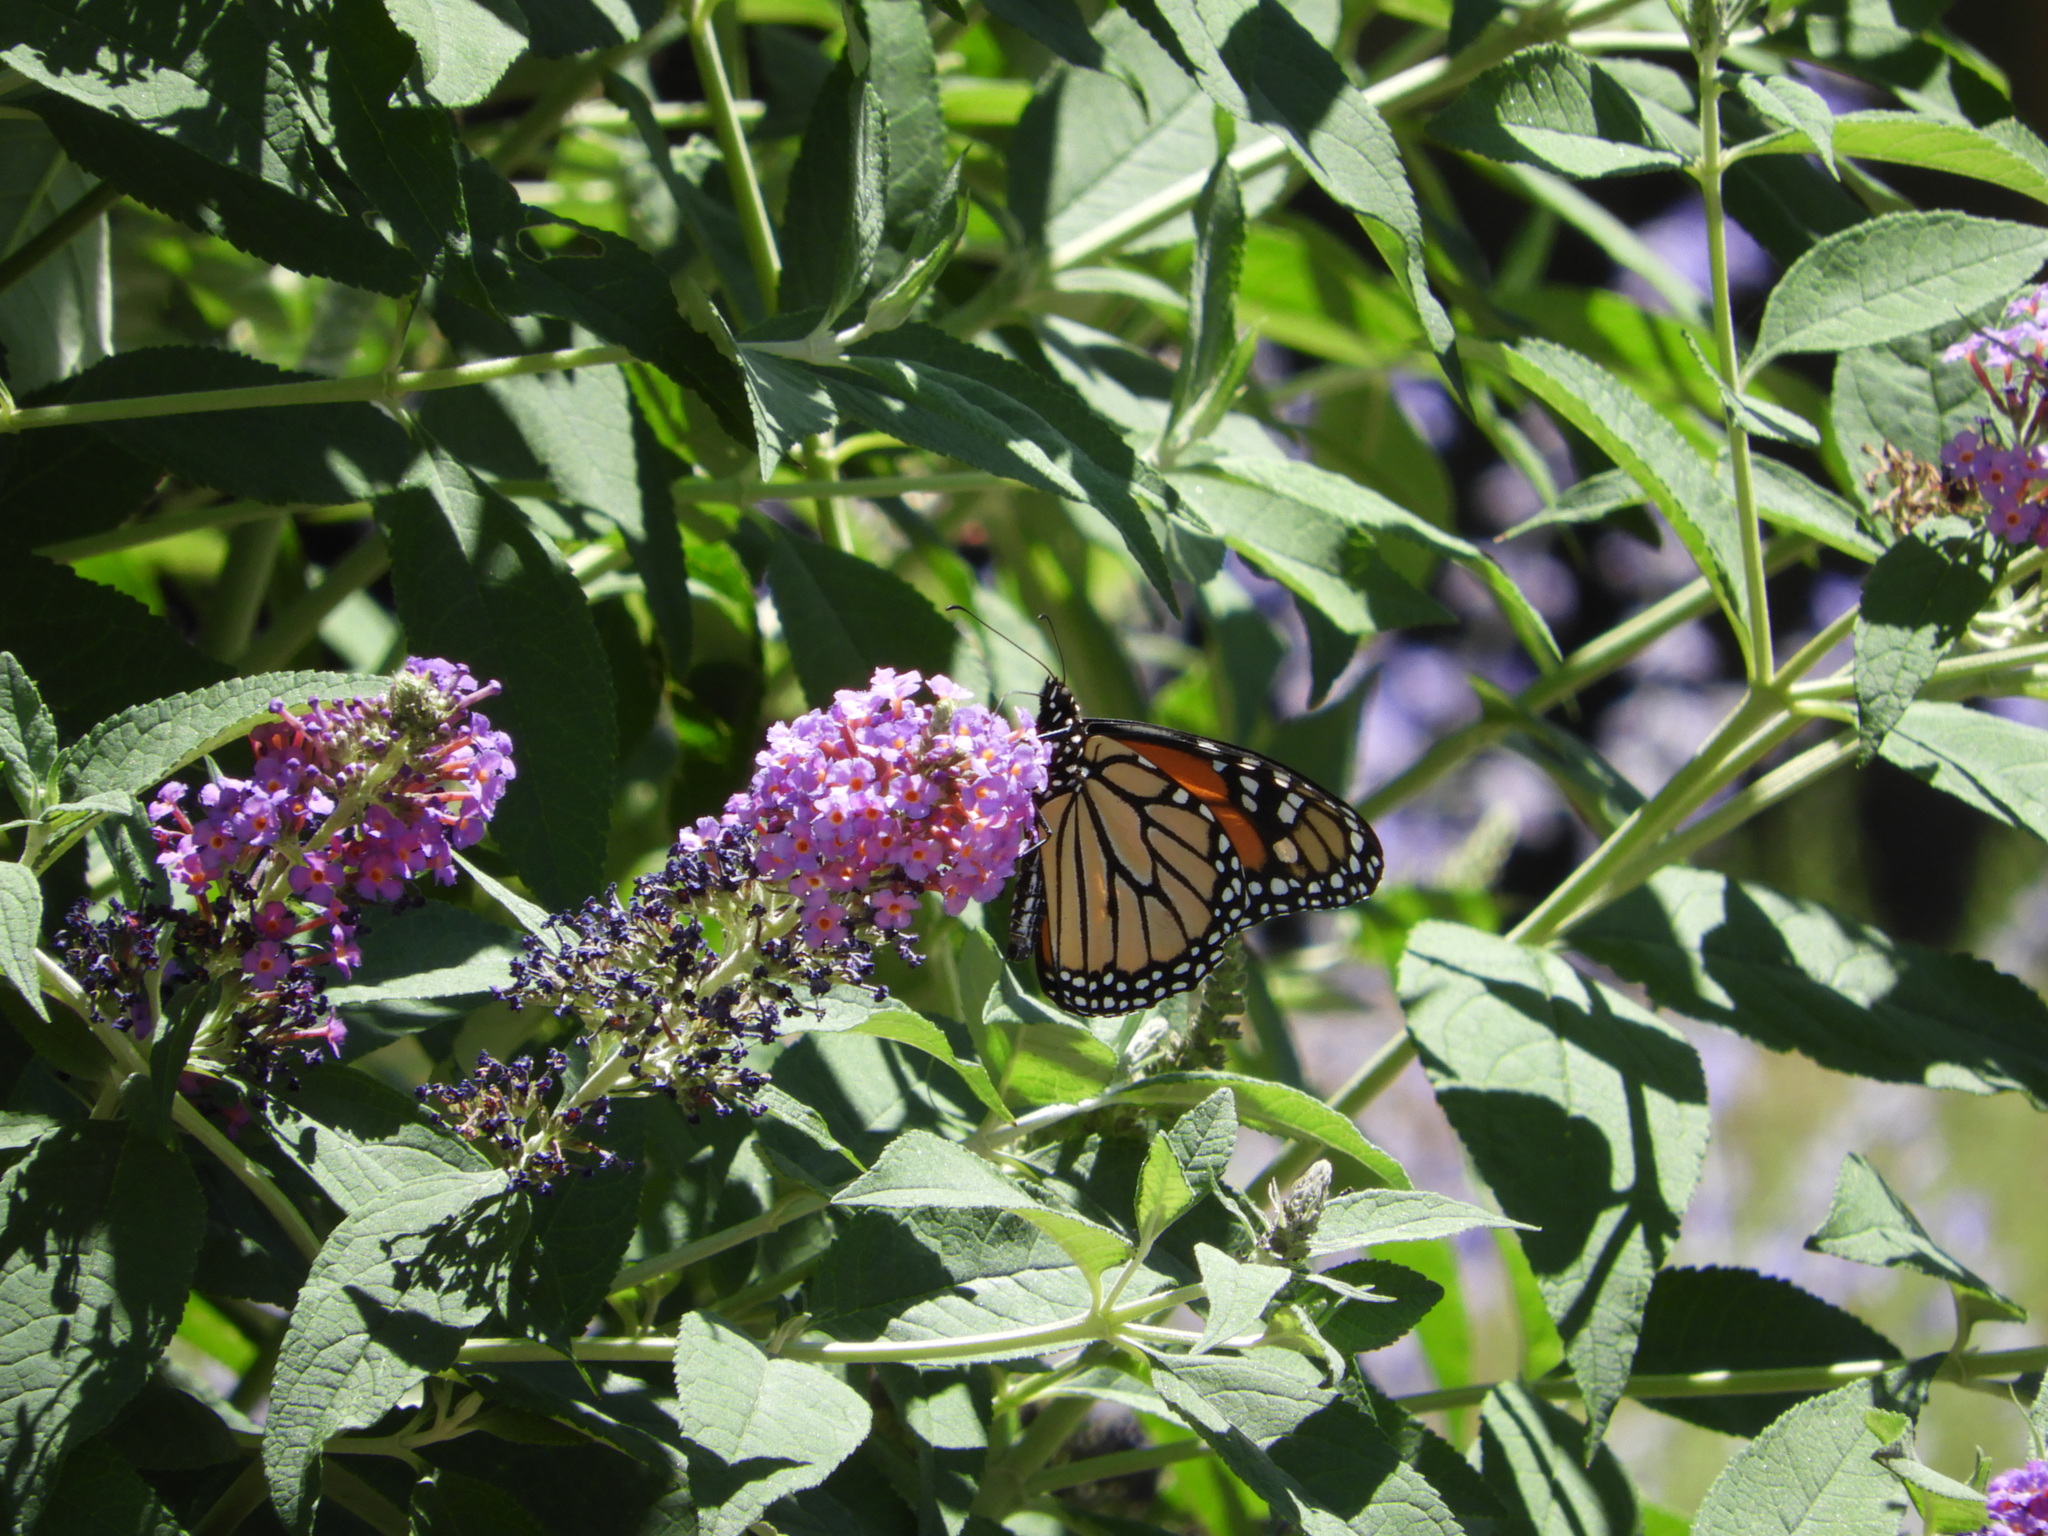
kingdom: Animalia
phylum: Arthropoda
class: Insecta
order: Lepidoptera
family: Nymphalidae
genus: Danaus
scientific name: Danaus plexippus
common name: Monarch
